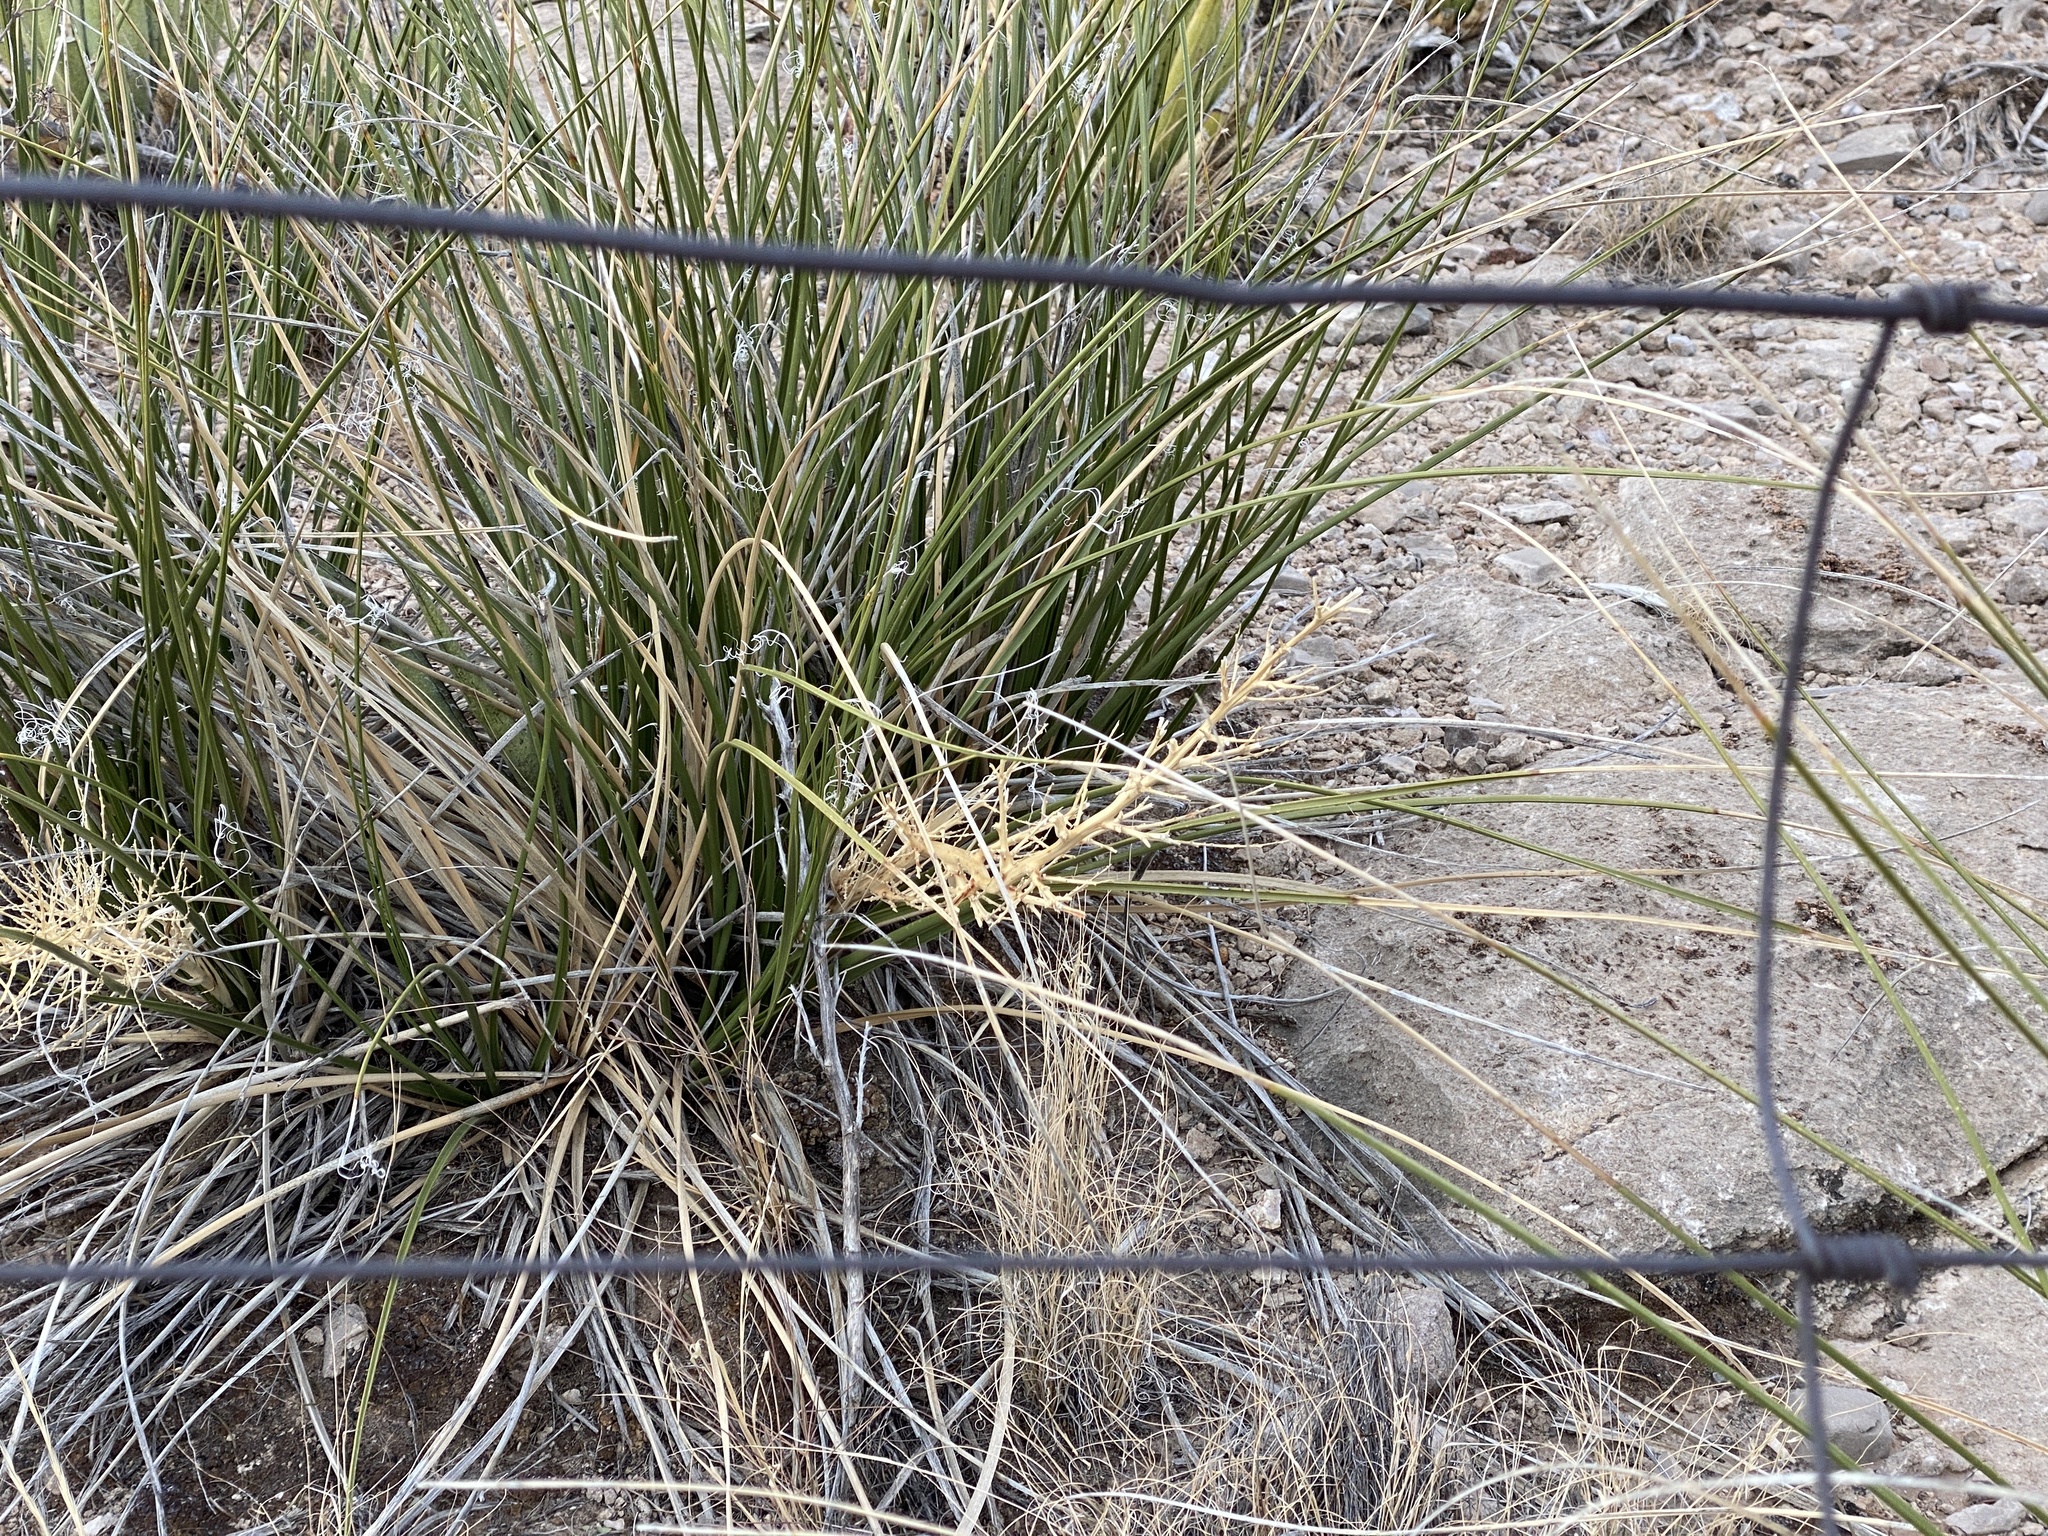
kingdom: Plantae
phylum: Tracheophyta
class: Liliopsida
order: Asparagales
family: Asparagaceae
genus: Nolina
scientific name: Nolina texana
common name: Texas sacahuiste
